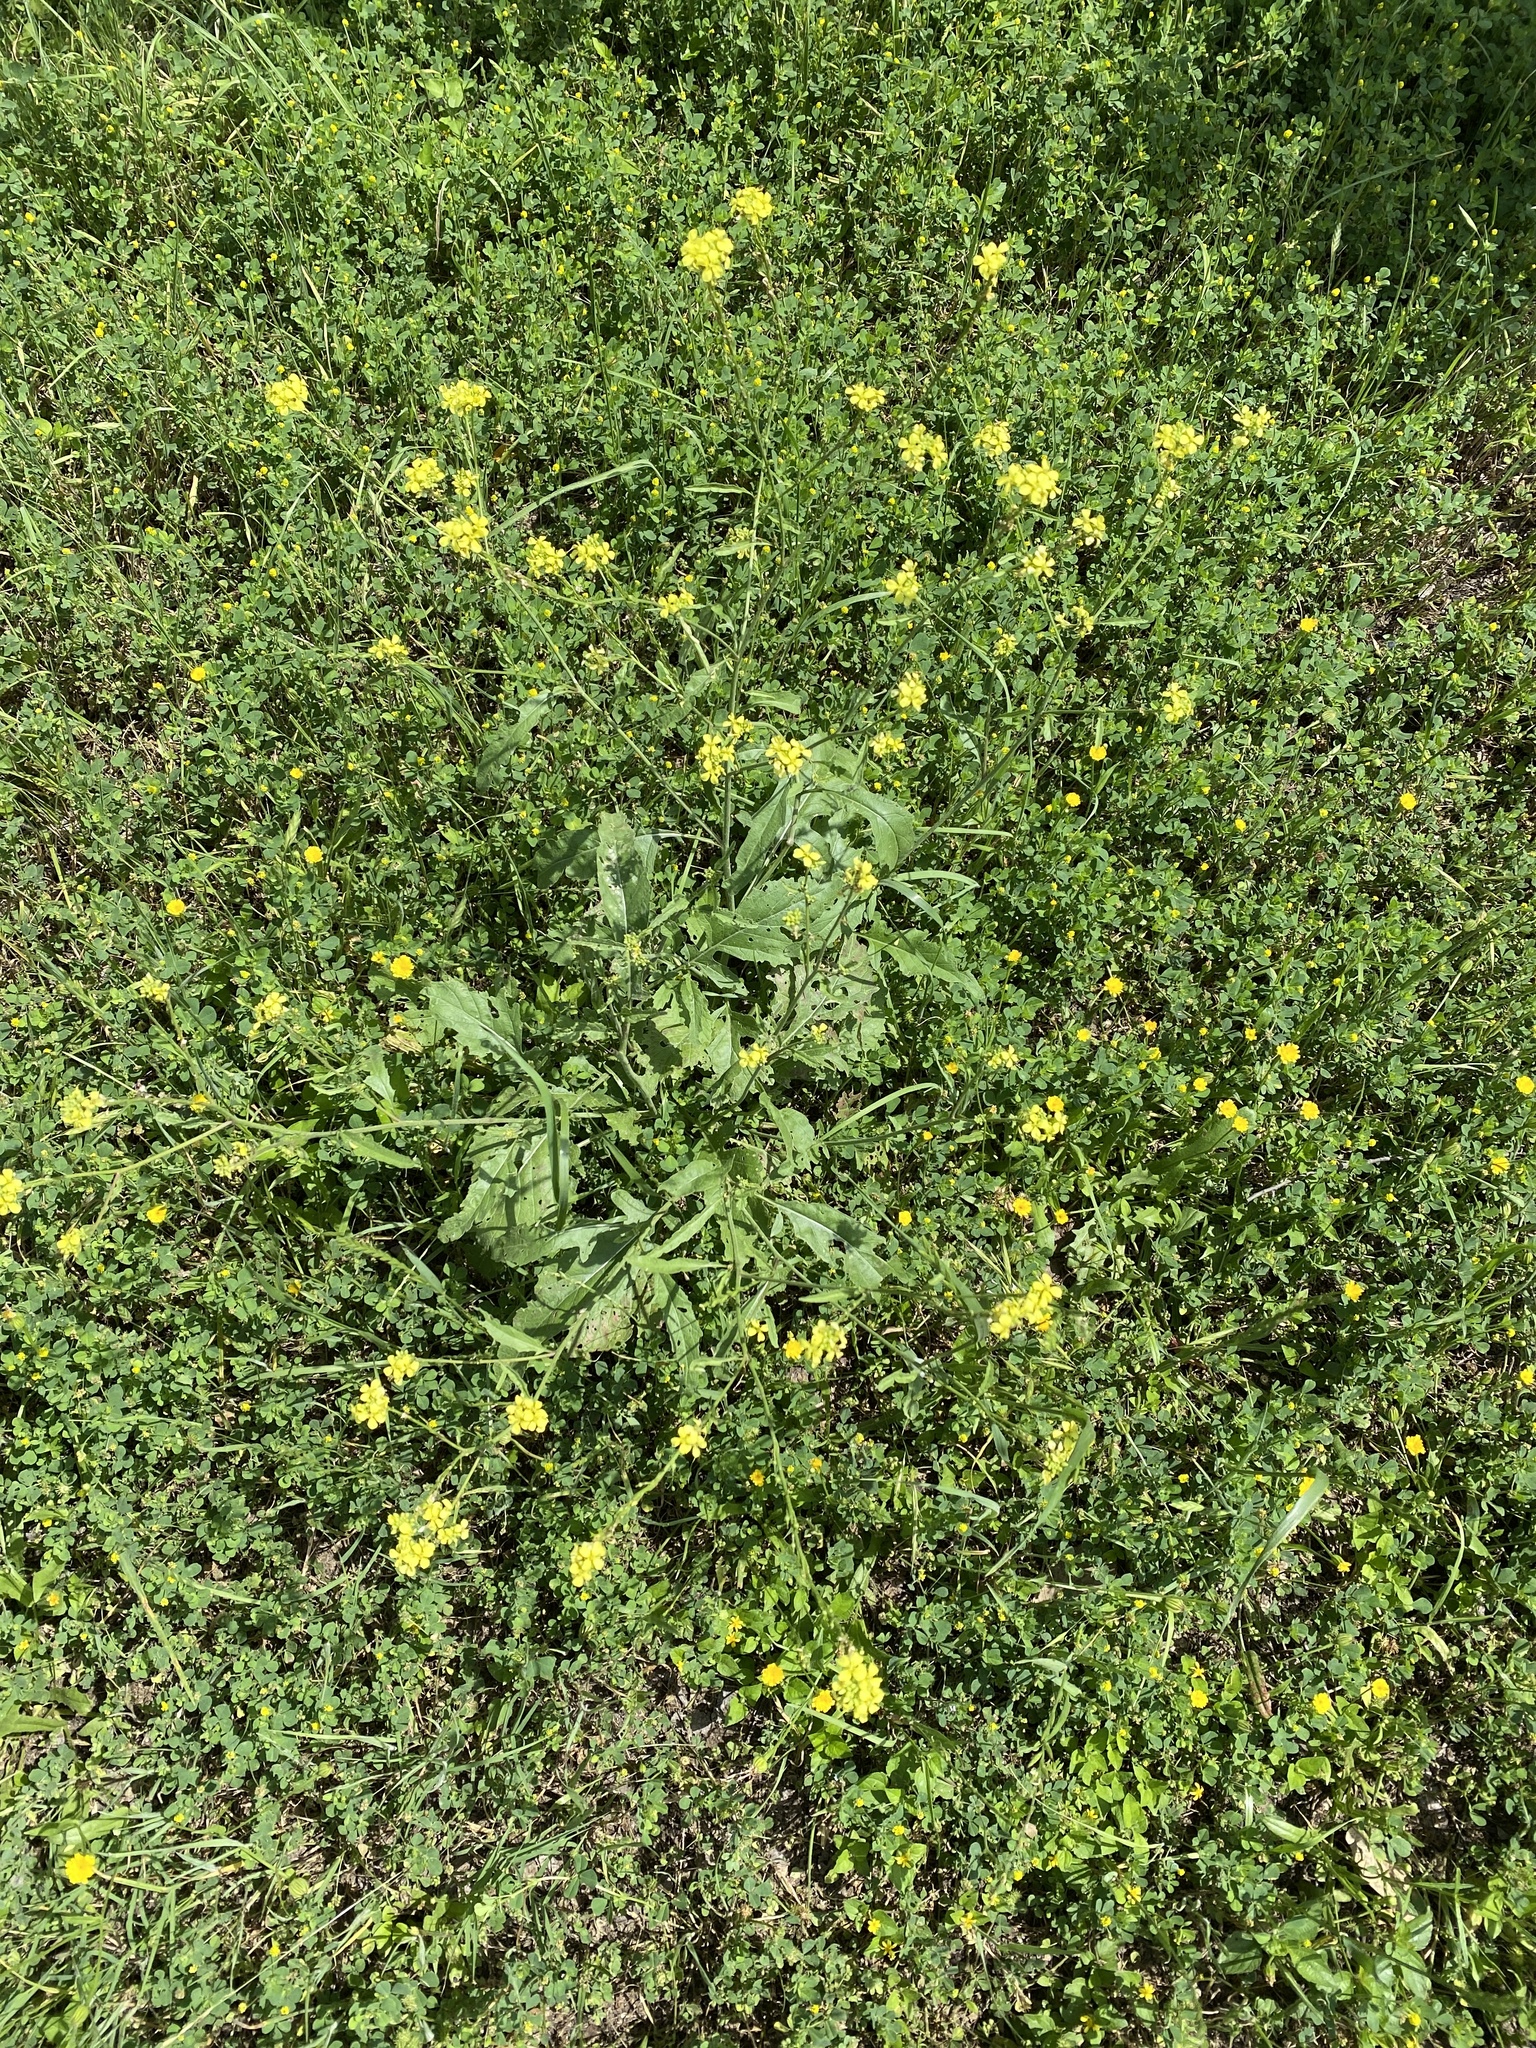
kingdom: Plantae
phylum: Tracheophyta
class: Magnoliopsida
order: Brassicales
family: Brassicaceae
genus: Rapistrum
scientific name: Rapistrum rugosum
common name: Annual bastardcabbage
